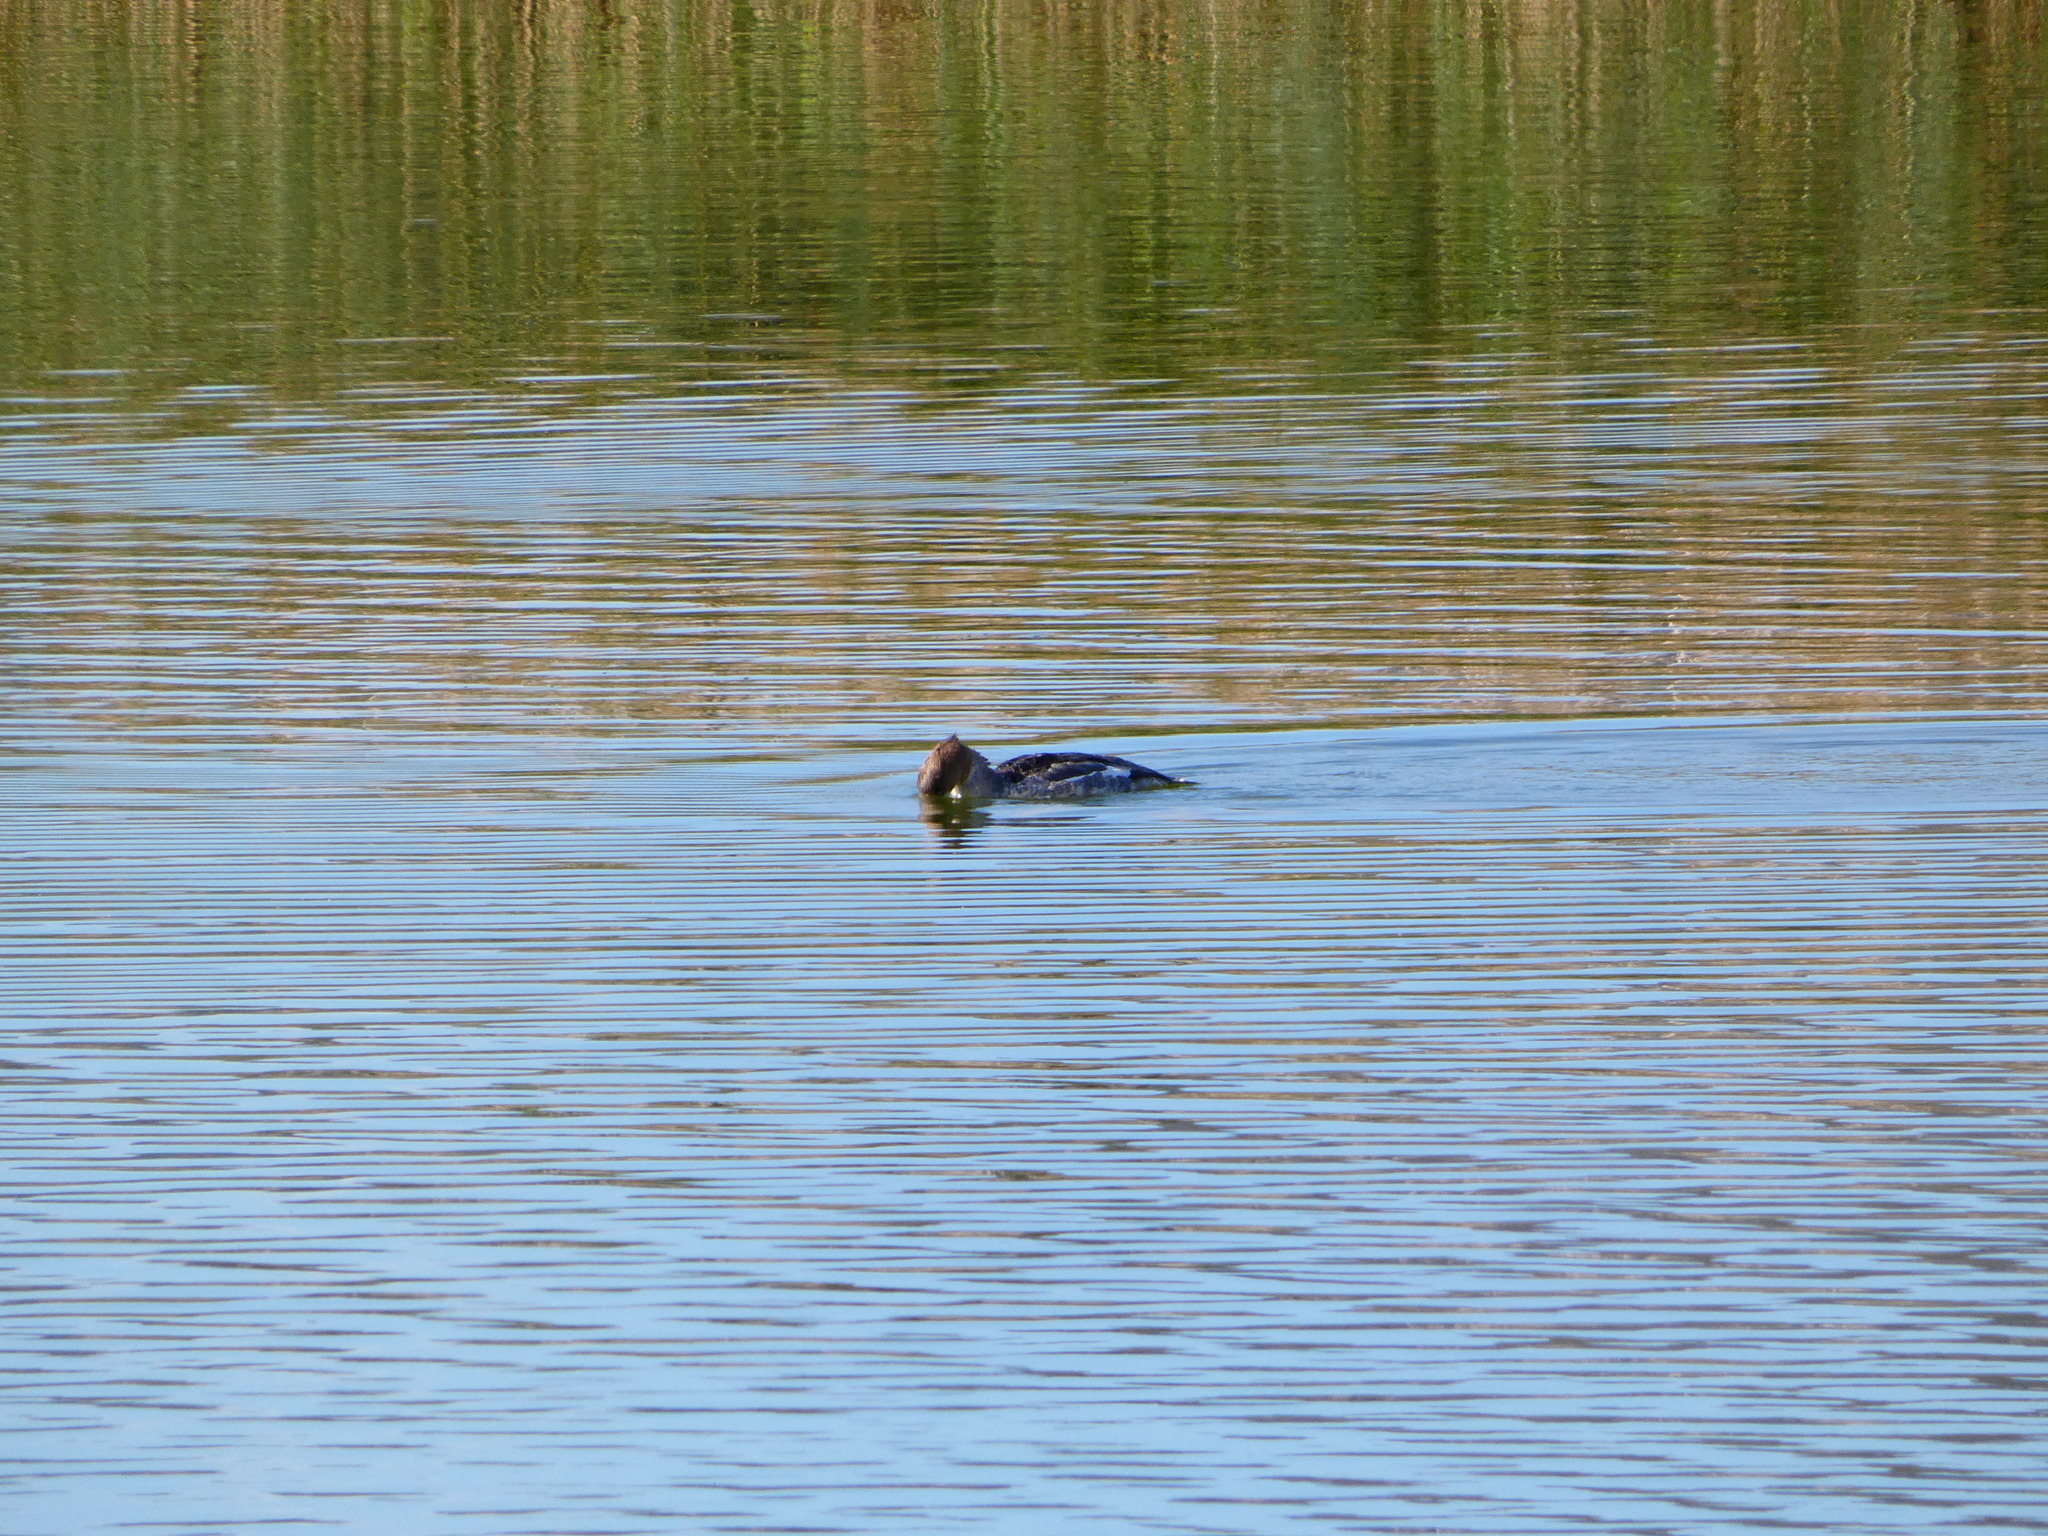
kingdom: Animalia
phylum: Chordata
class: Aves
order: Anseriformes
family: Anatidae
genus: Mergus
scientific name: Mergus merganser
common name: Common merganser
